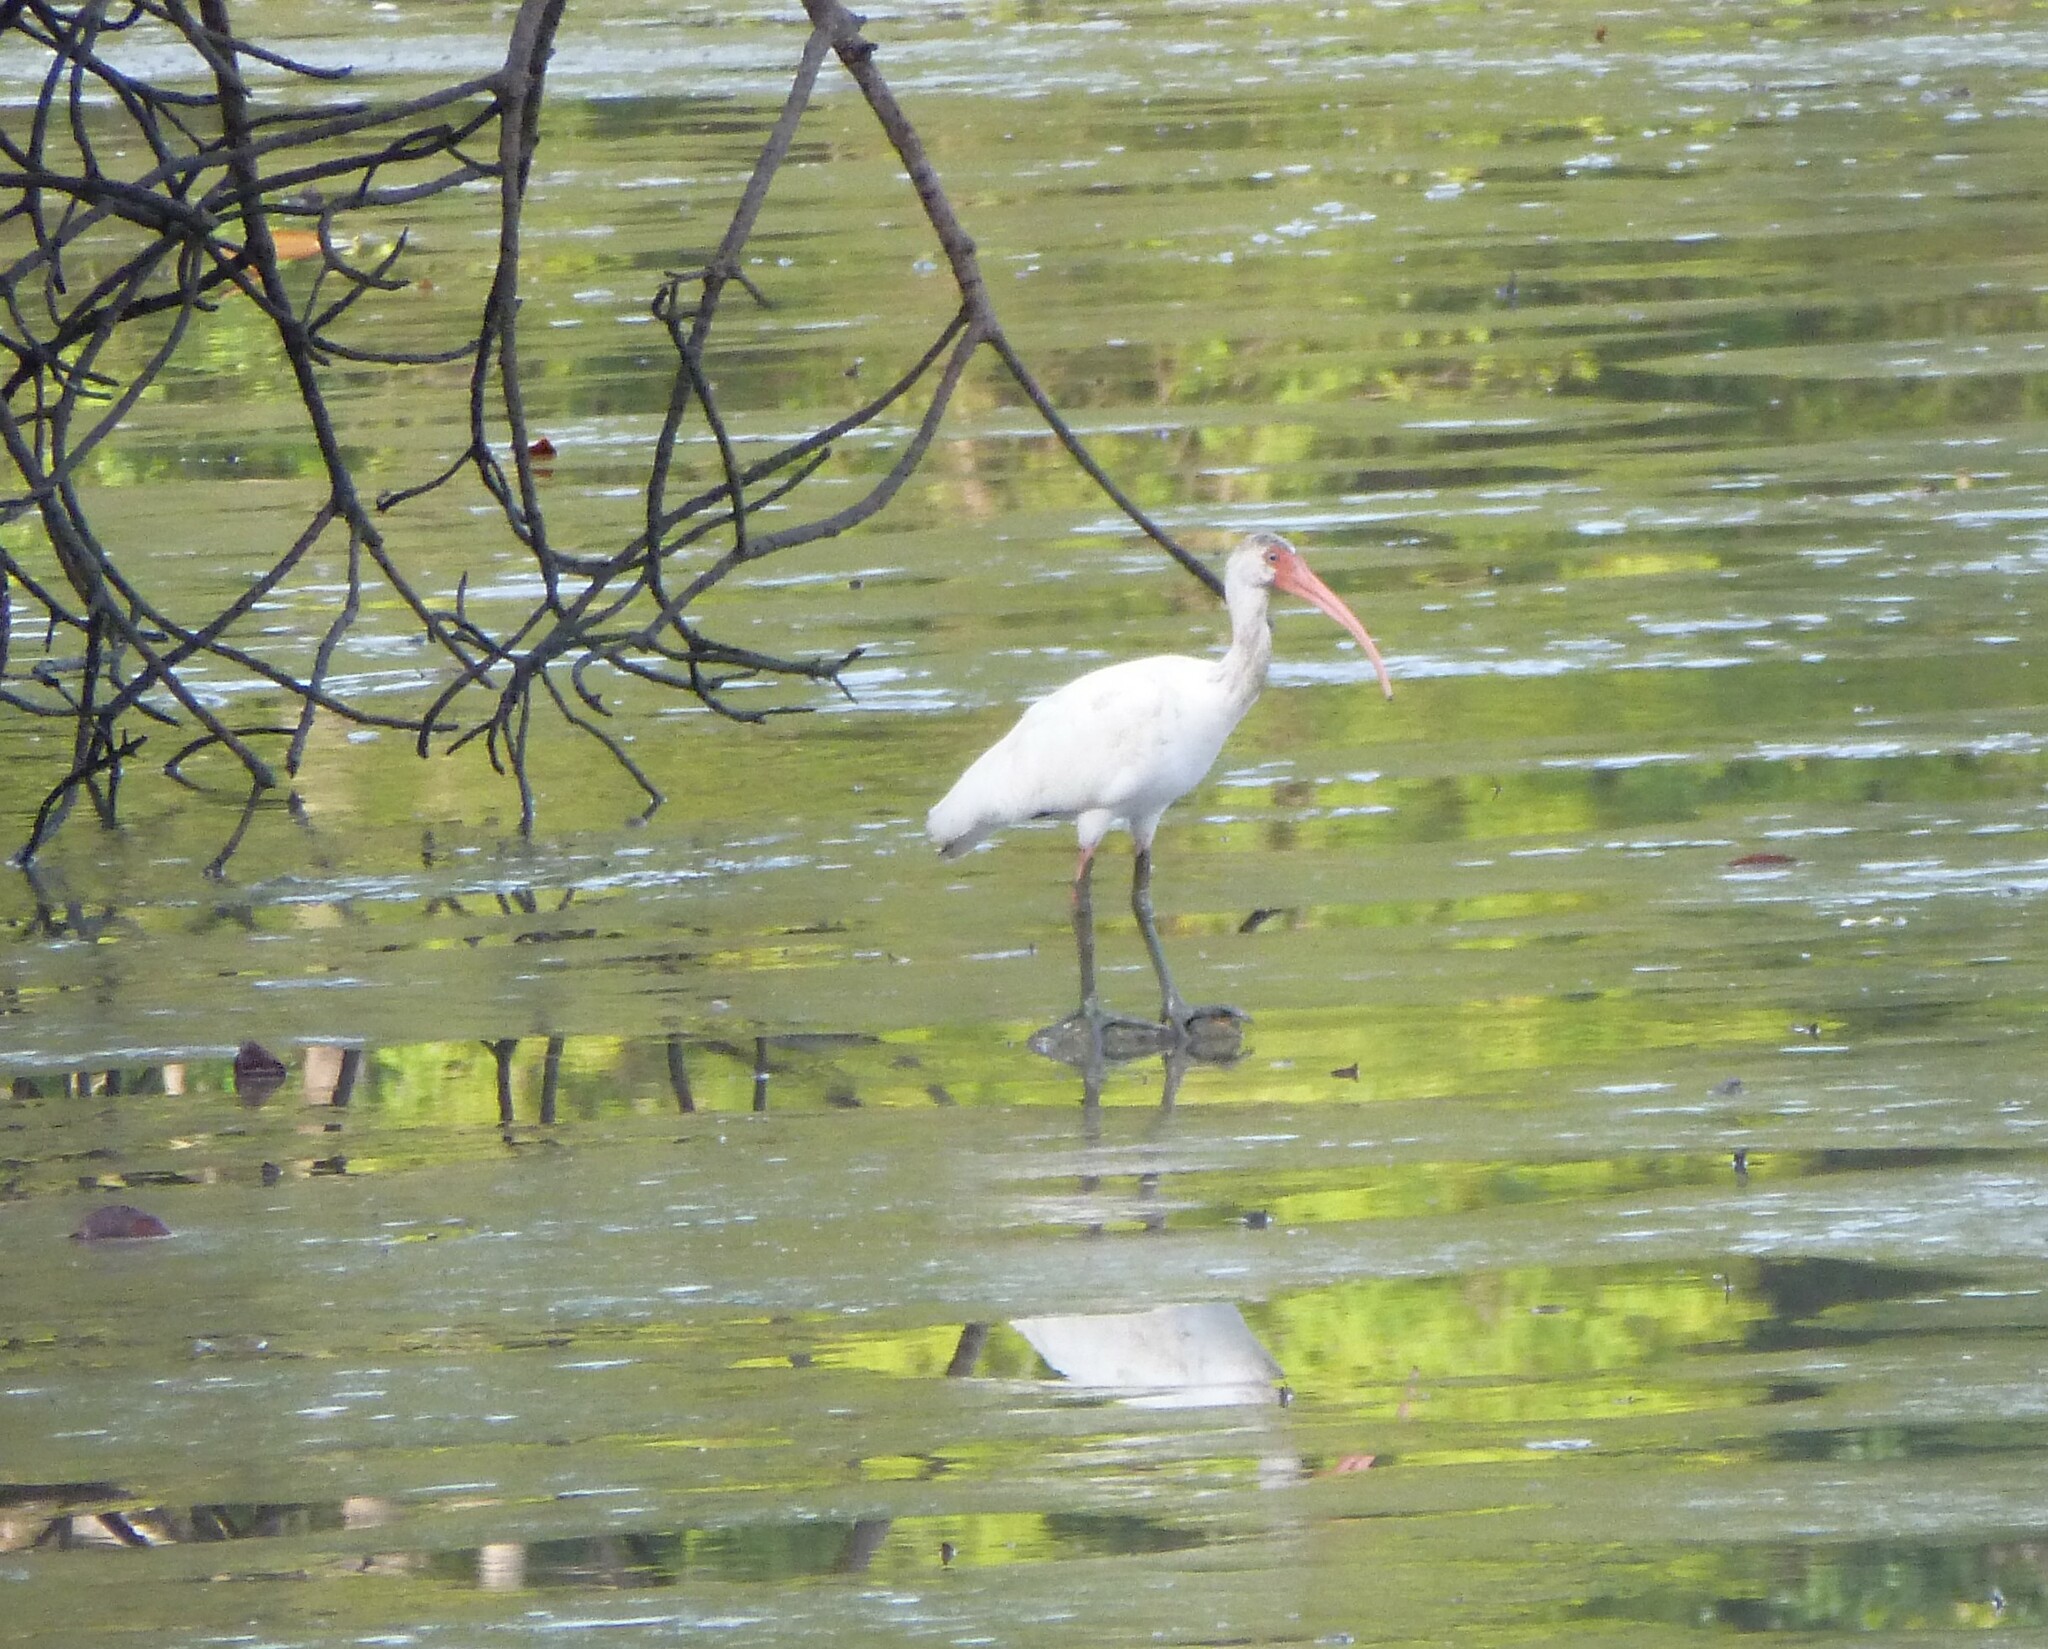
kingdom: Animalia
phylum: Chordata
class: Aves
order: Pelecaniformes
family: Threskiornithidae
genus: Eudocimus
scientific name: Eudocimus albus
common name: White ibis
